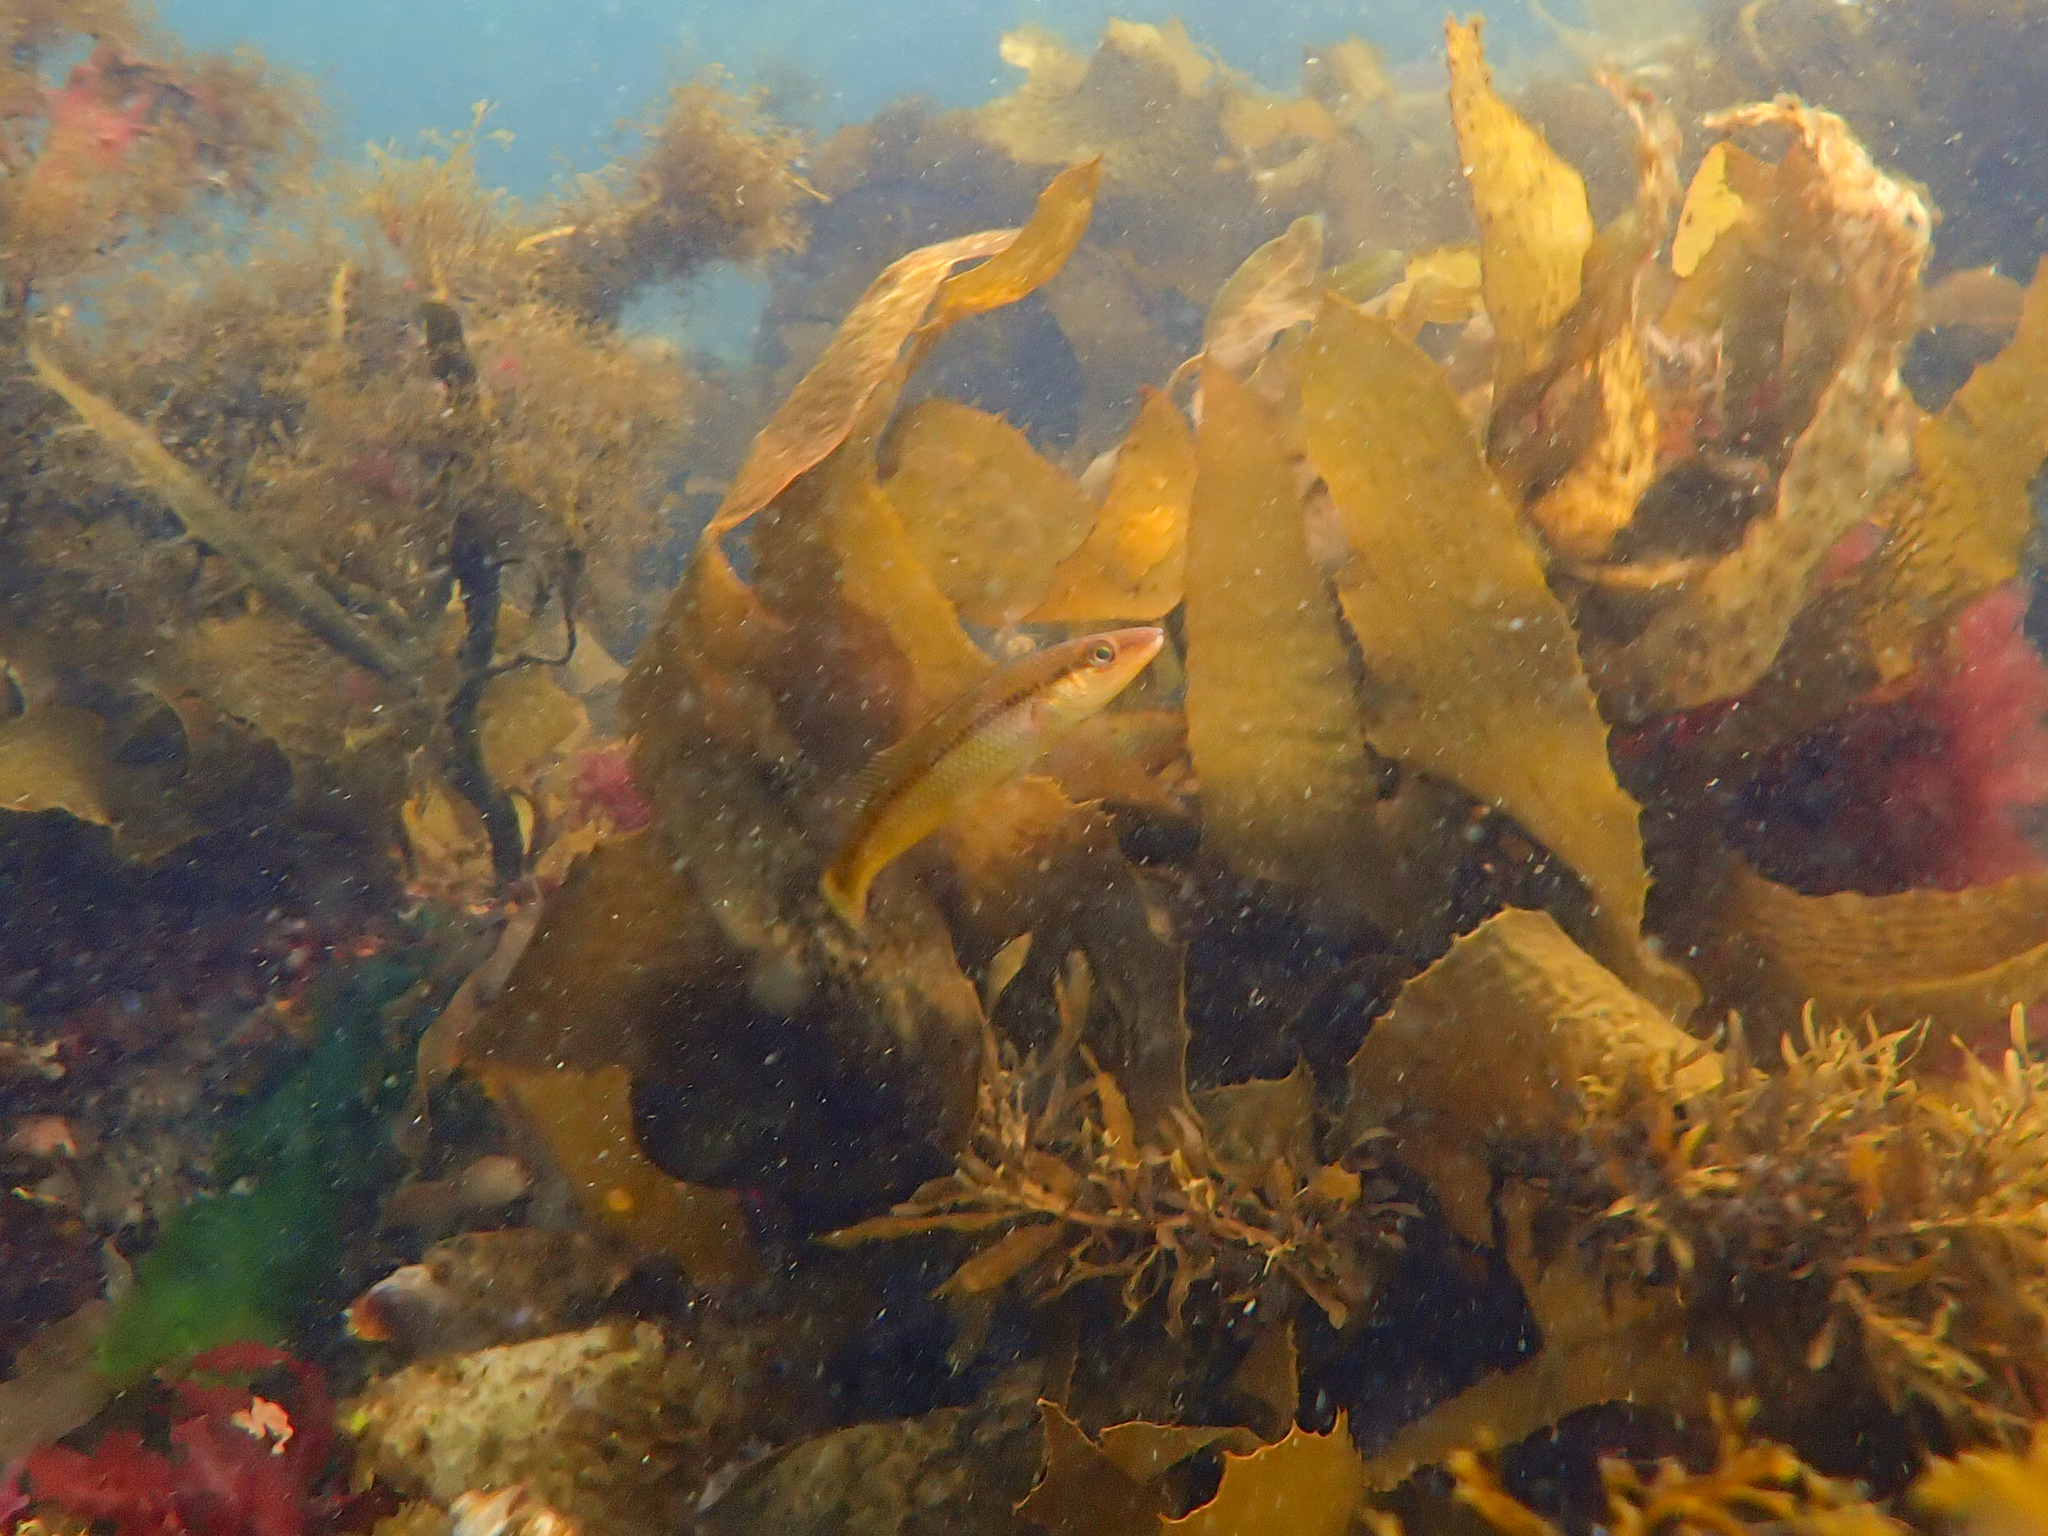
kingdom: Animalia
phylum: Chordata
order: Perciformes
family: Odacidae
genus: Neoodax
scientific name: Neoodax balteatus
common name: Ground mullet
